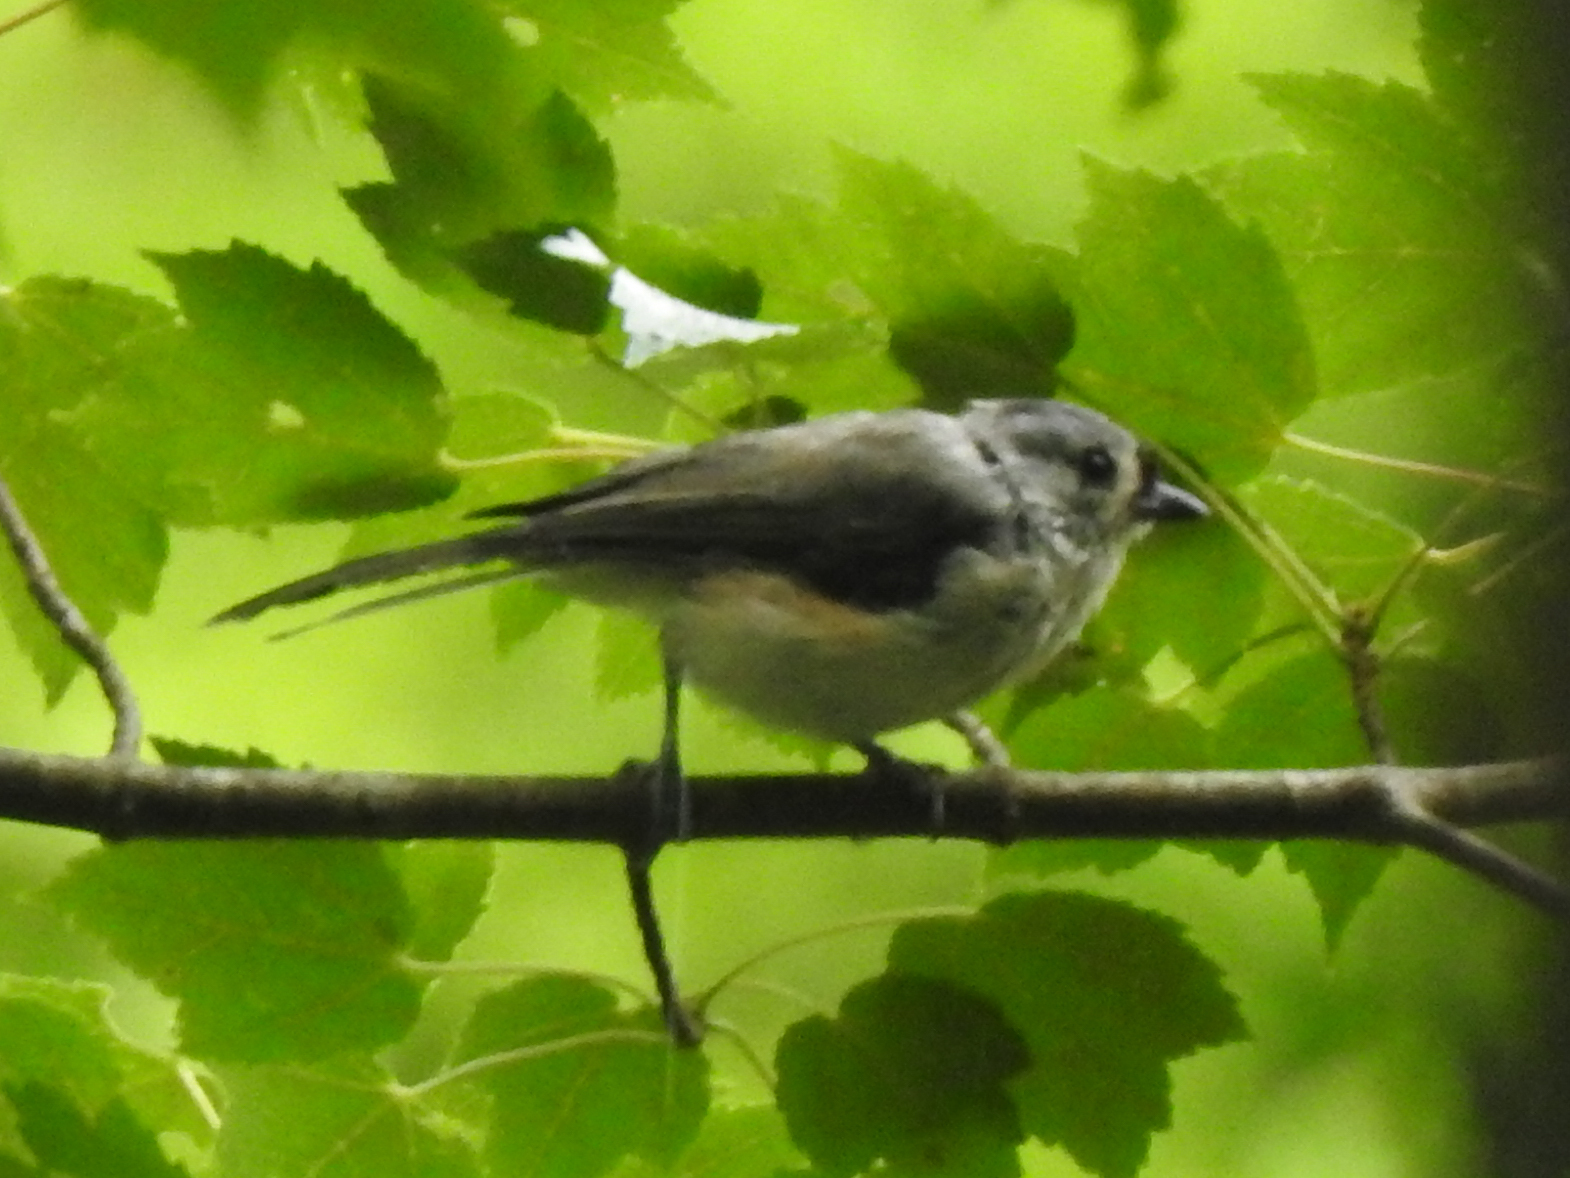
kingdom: Animalia
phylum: Chordata
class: Aves
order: Passeriformes
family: Paridae
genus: Baeolophus
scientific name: Baeolophus bicolor
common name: Tufted titmouse
